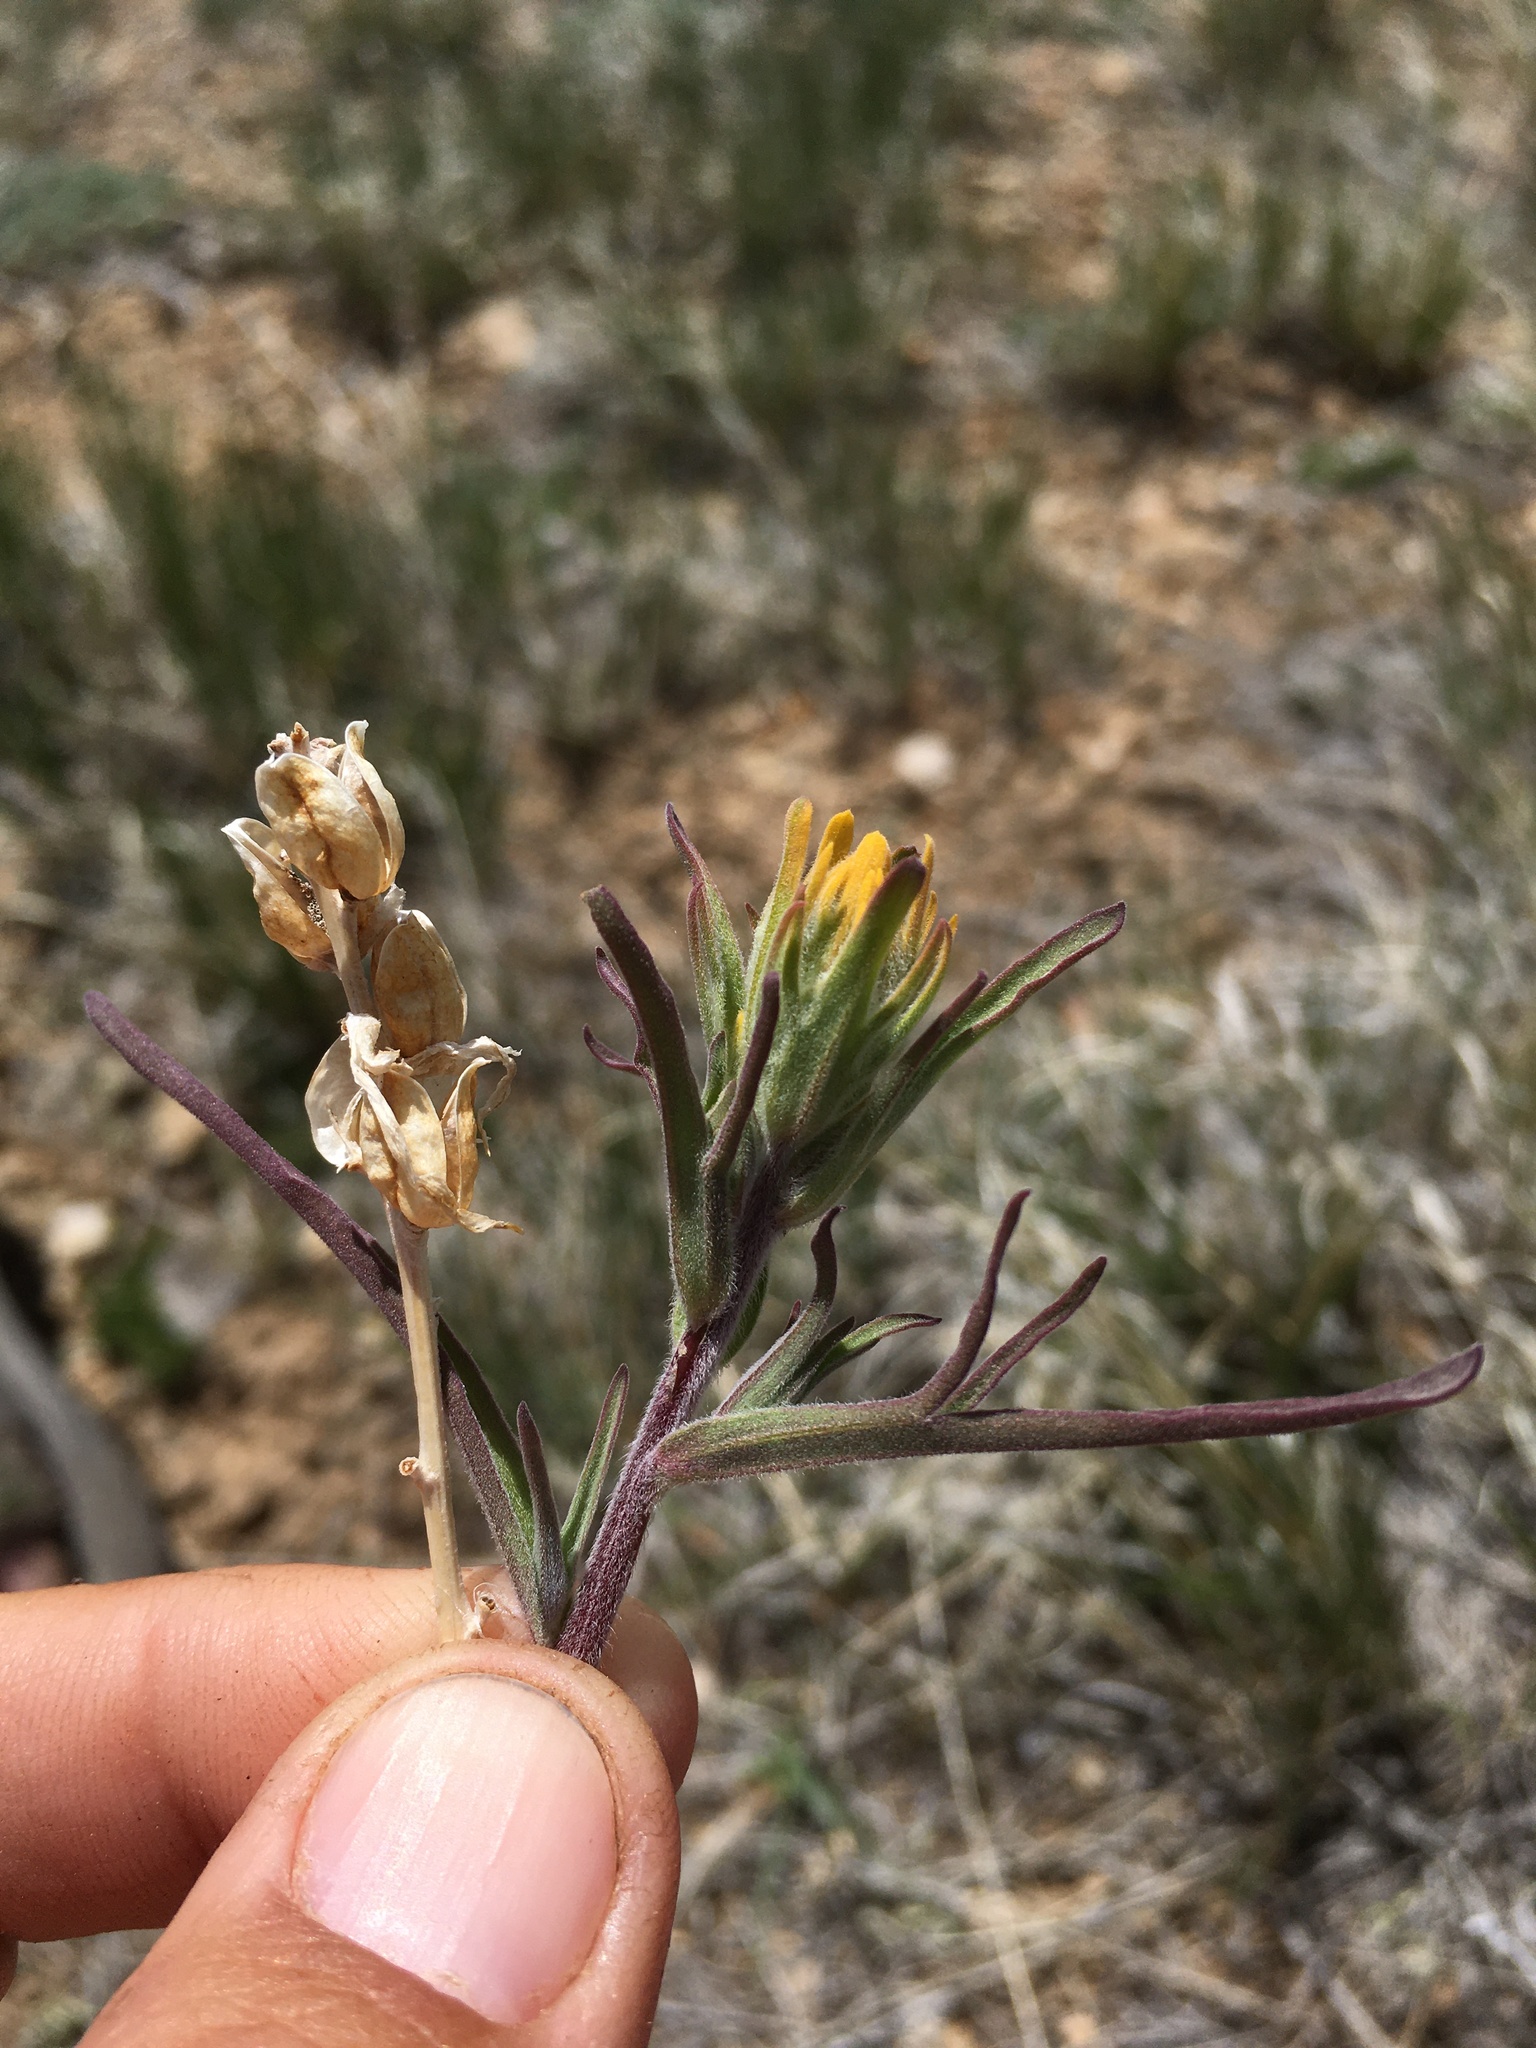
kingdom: Plantae
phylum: Tracheophyta
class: Magnoliopsida
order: Lamiales
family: Orobanchaceae
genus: Castilleja
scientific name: Castilleja angustifolia
